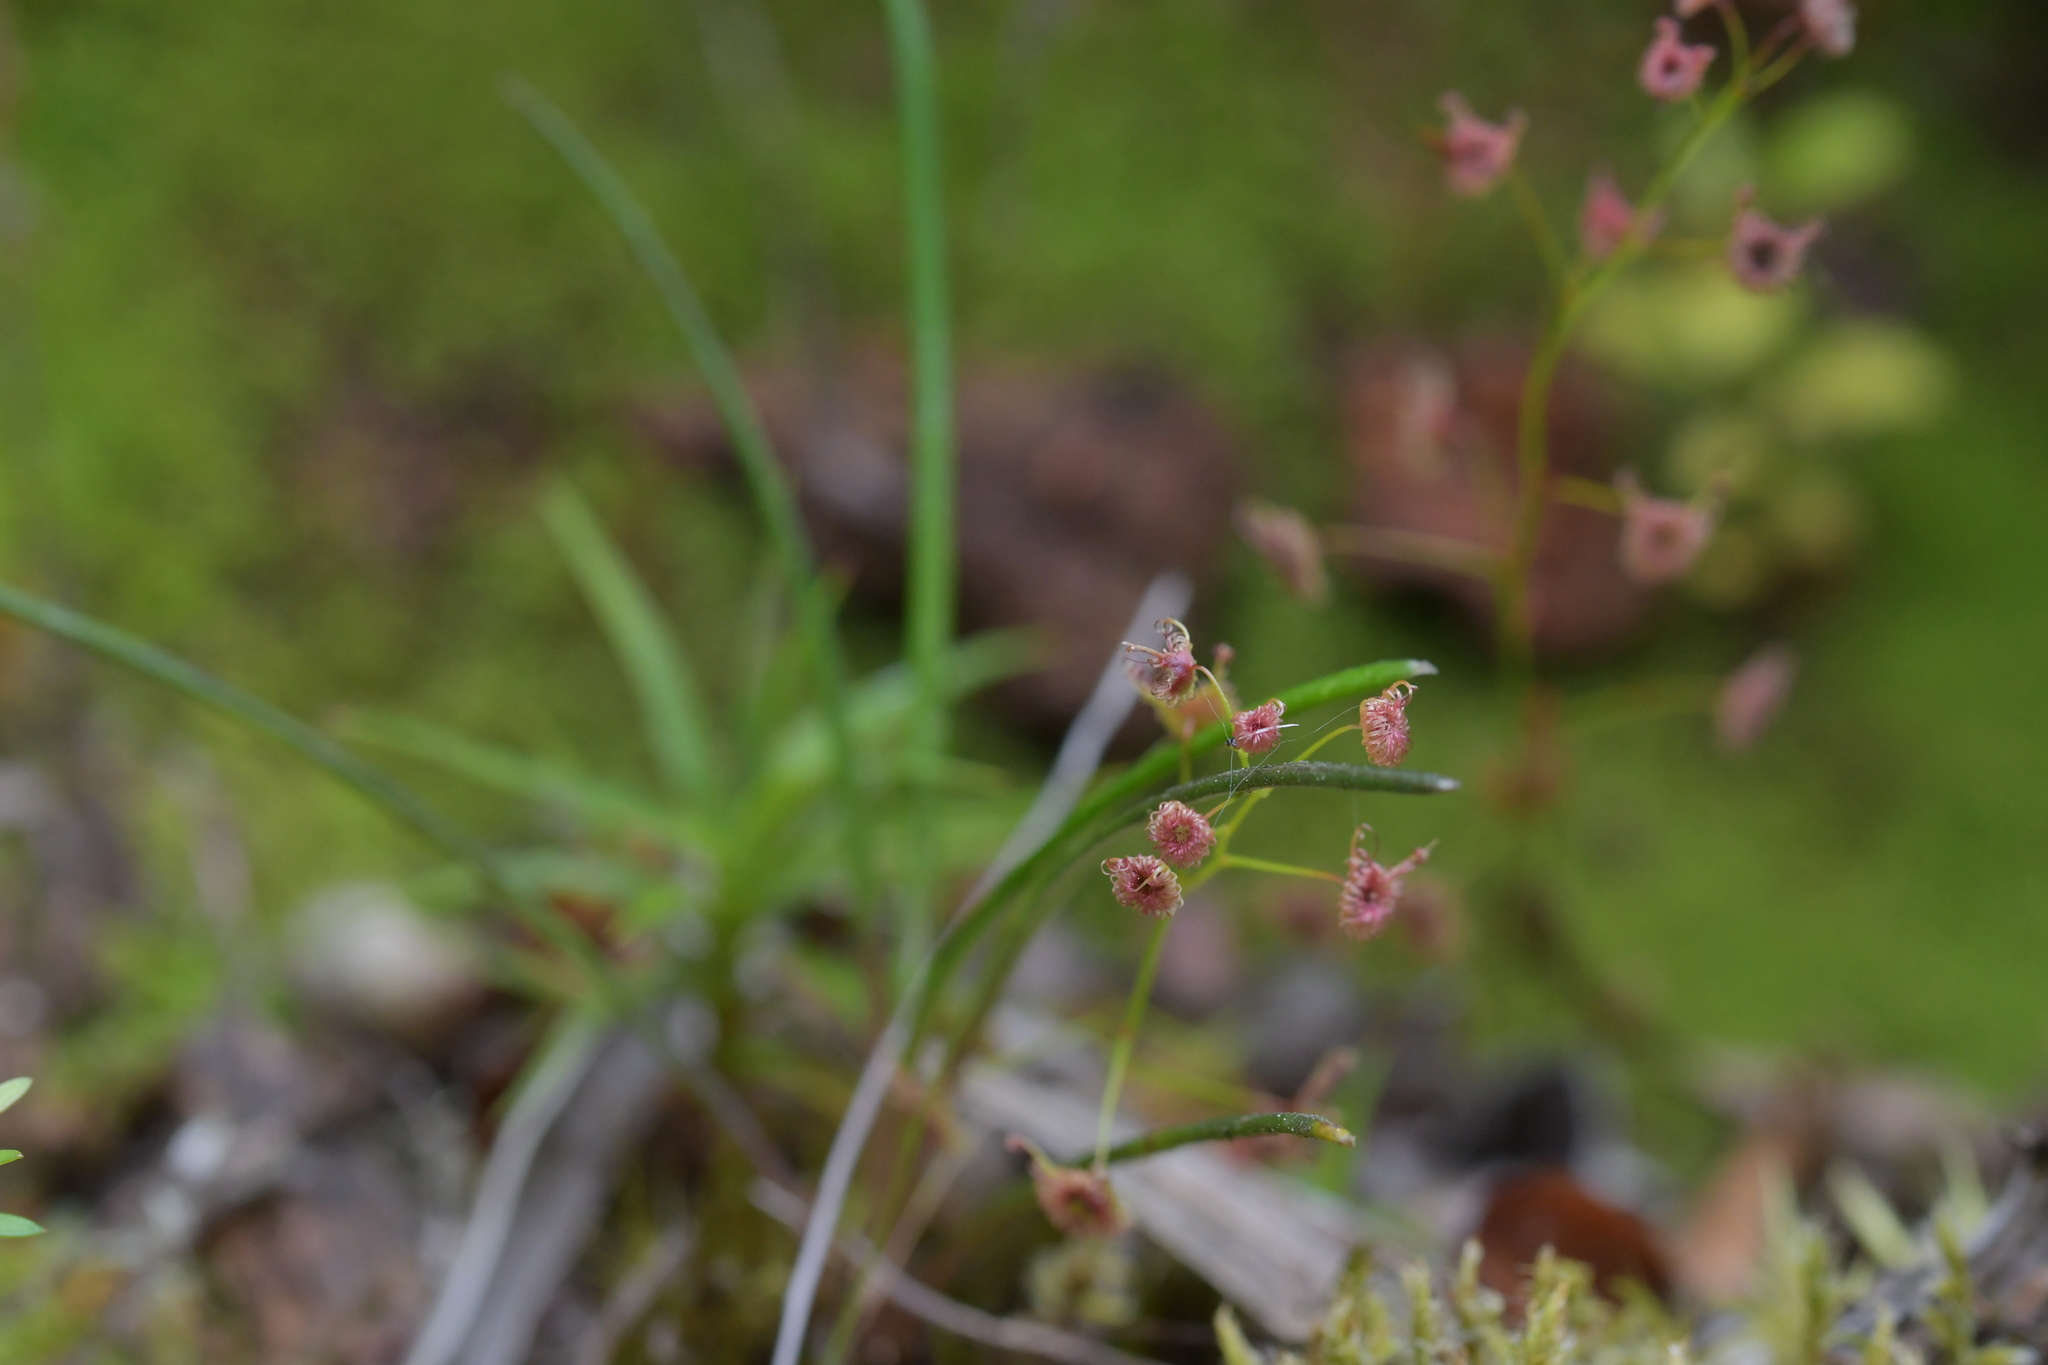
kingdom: Plantae
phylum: Tracheophyta
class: Magnoliopsida
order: Caryophyllales
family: Droseraceae
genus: Drosera
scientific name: Drosera peltata
